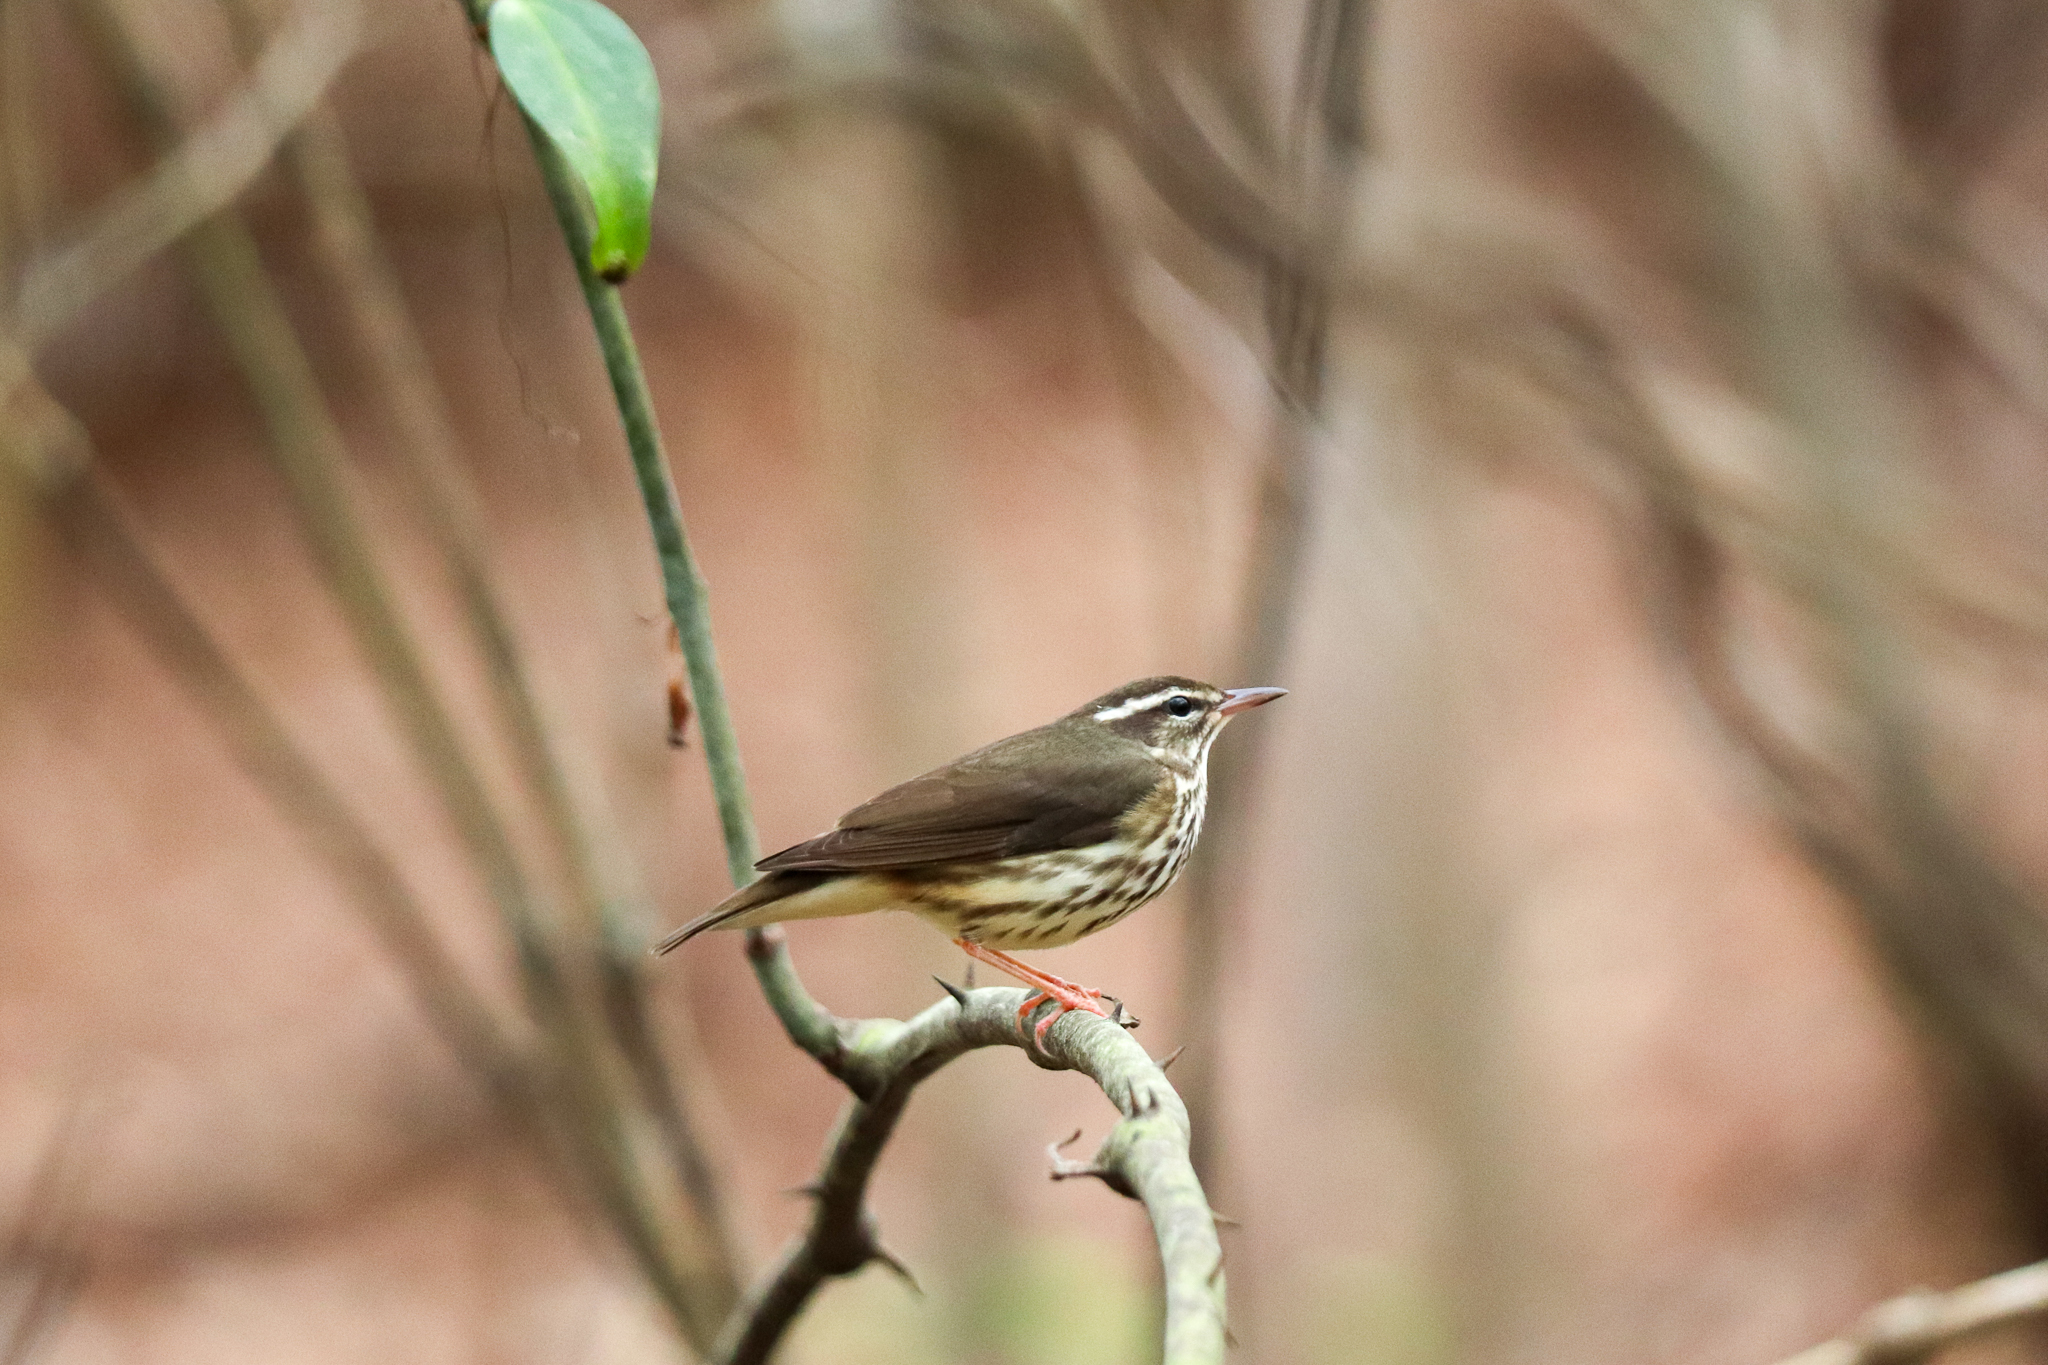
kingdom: Animalia
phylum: Chordata
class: Aves
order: Passeriformes
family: Parulidae
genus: Parkesia
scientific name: Parkesia motacilla
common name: Louisiana waterthrush
